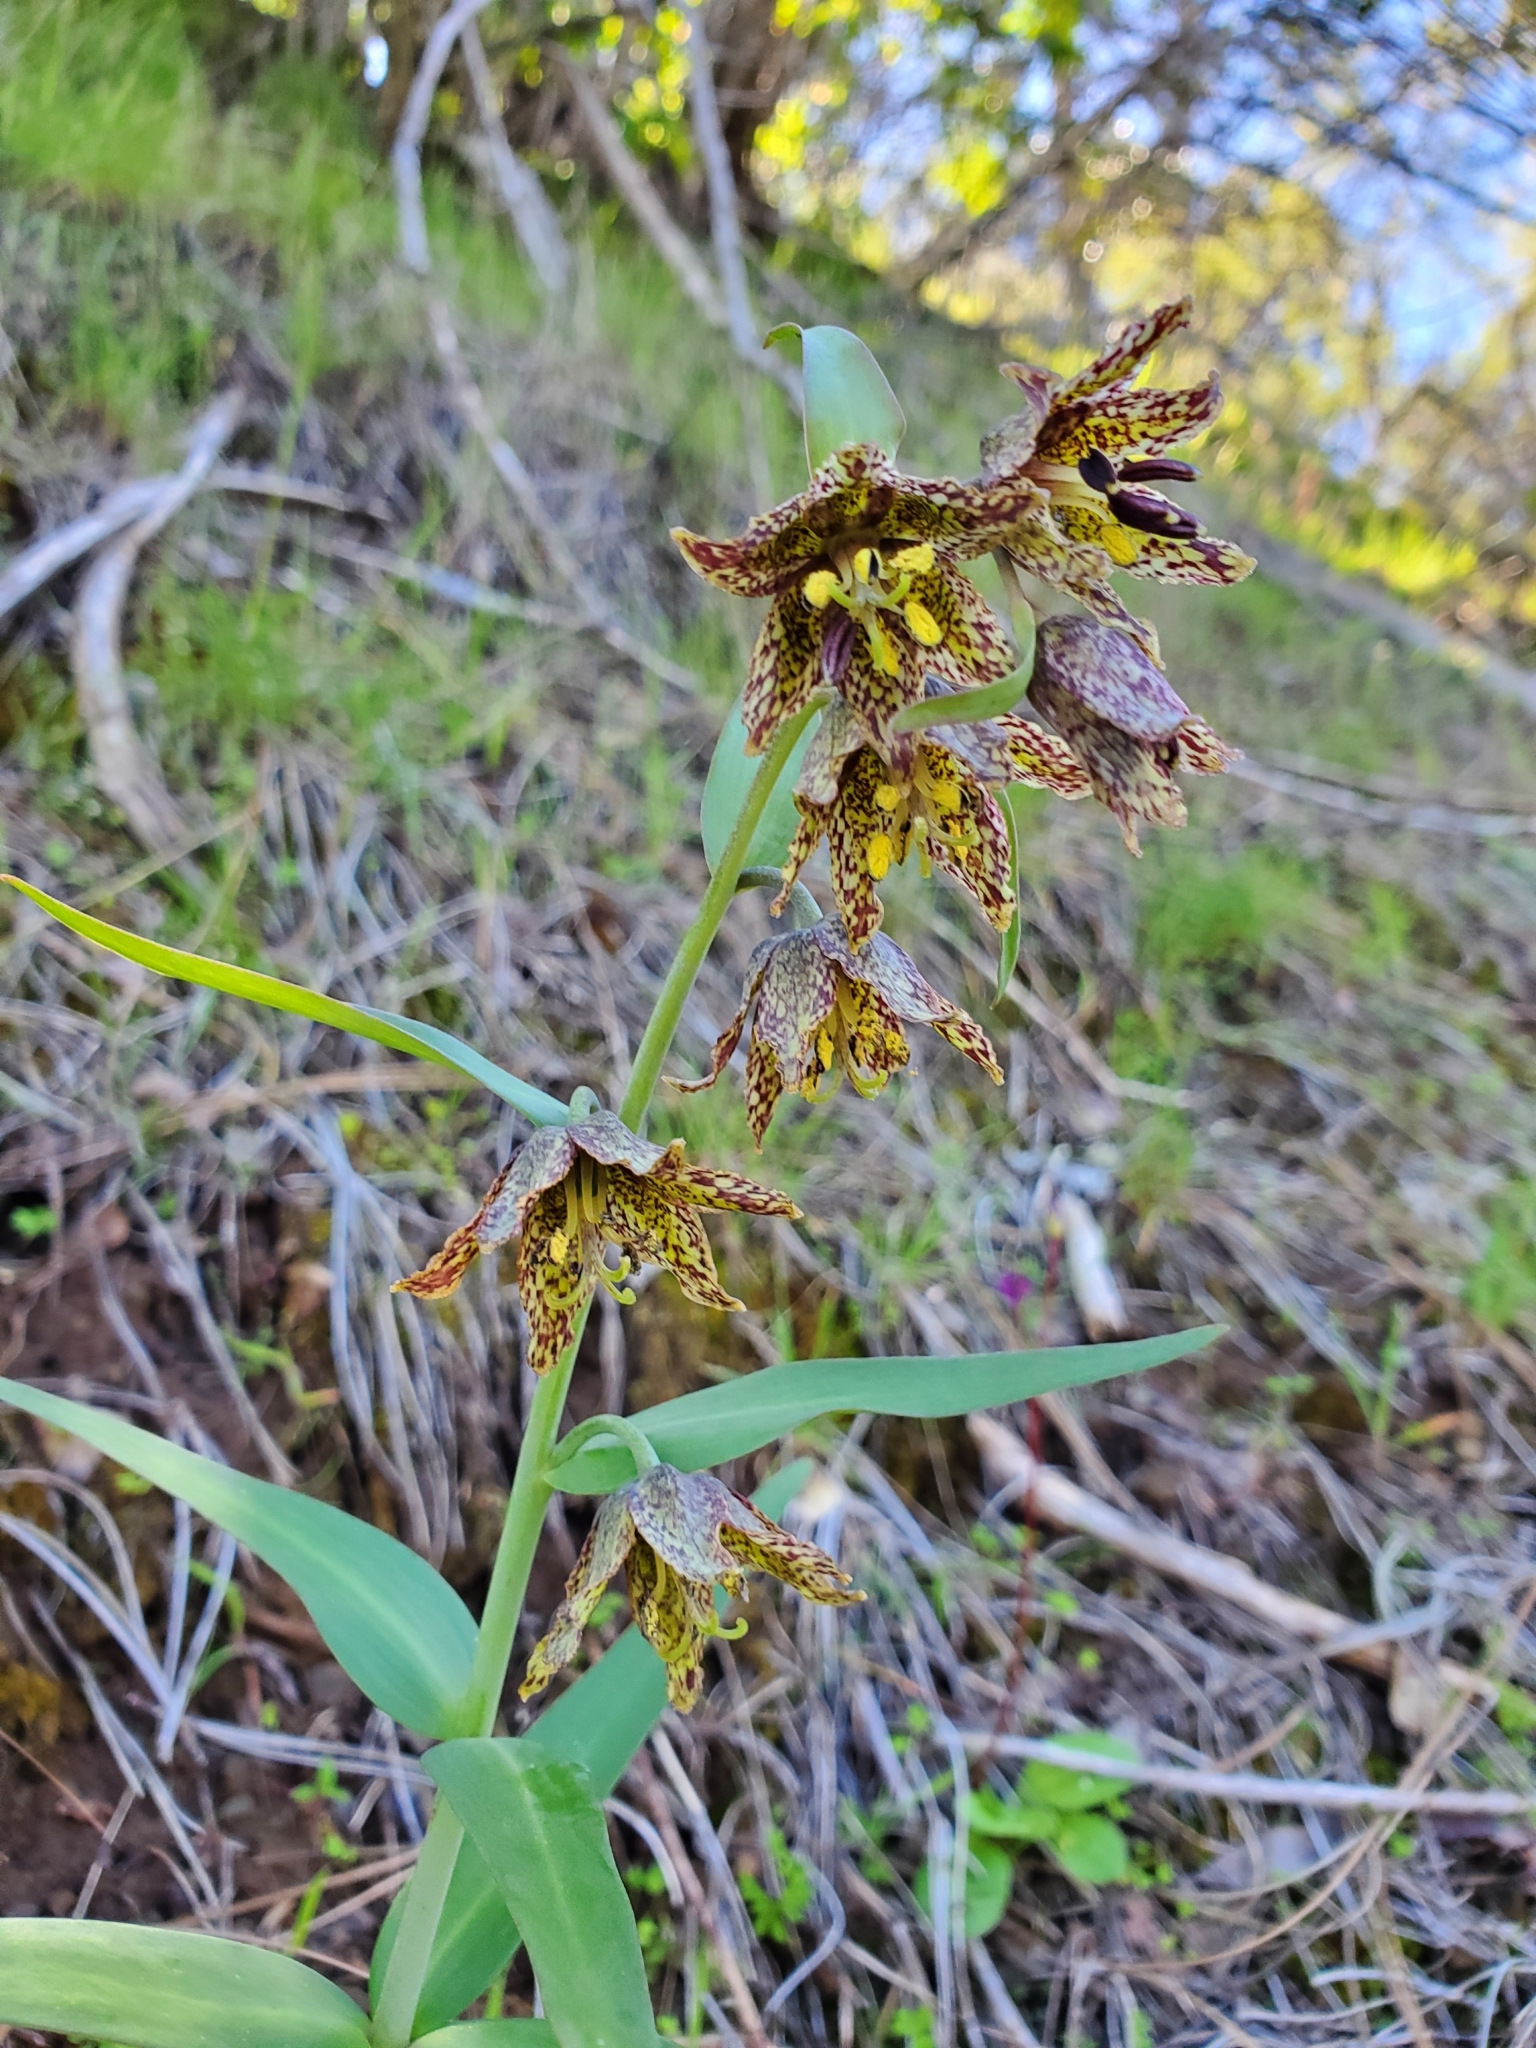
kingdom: Plantae
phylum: Tracheophyta
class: Liliopsida
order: Liliales
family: Liliaceae
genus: Fritillaria
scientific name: Fritillaria affinis
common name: Ojai fritillary
